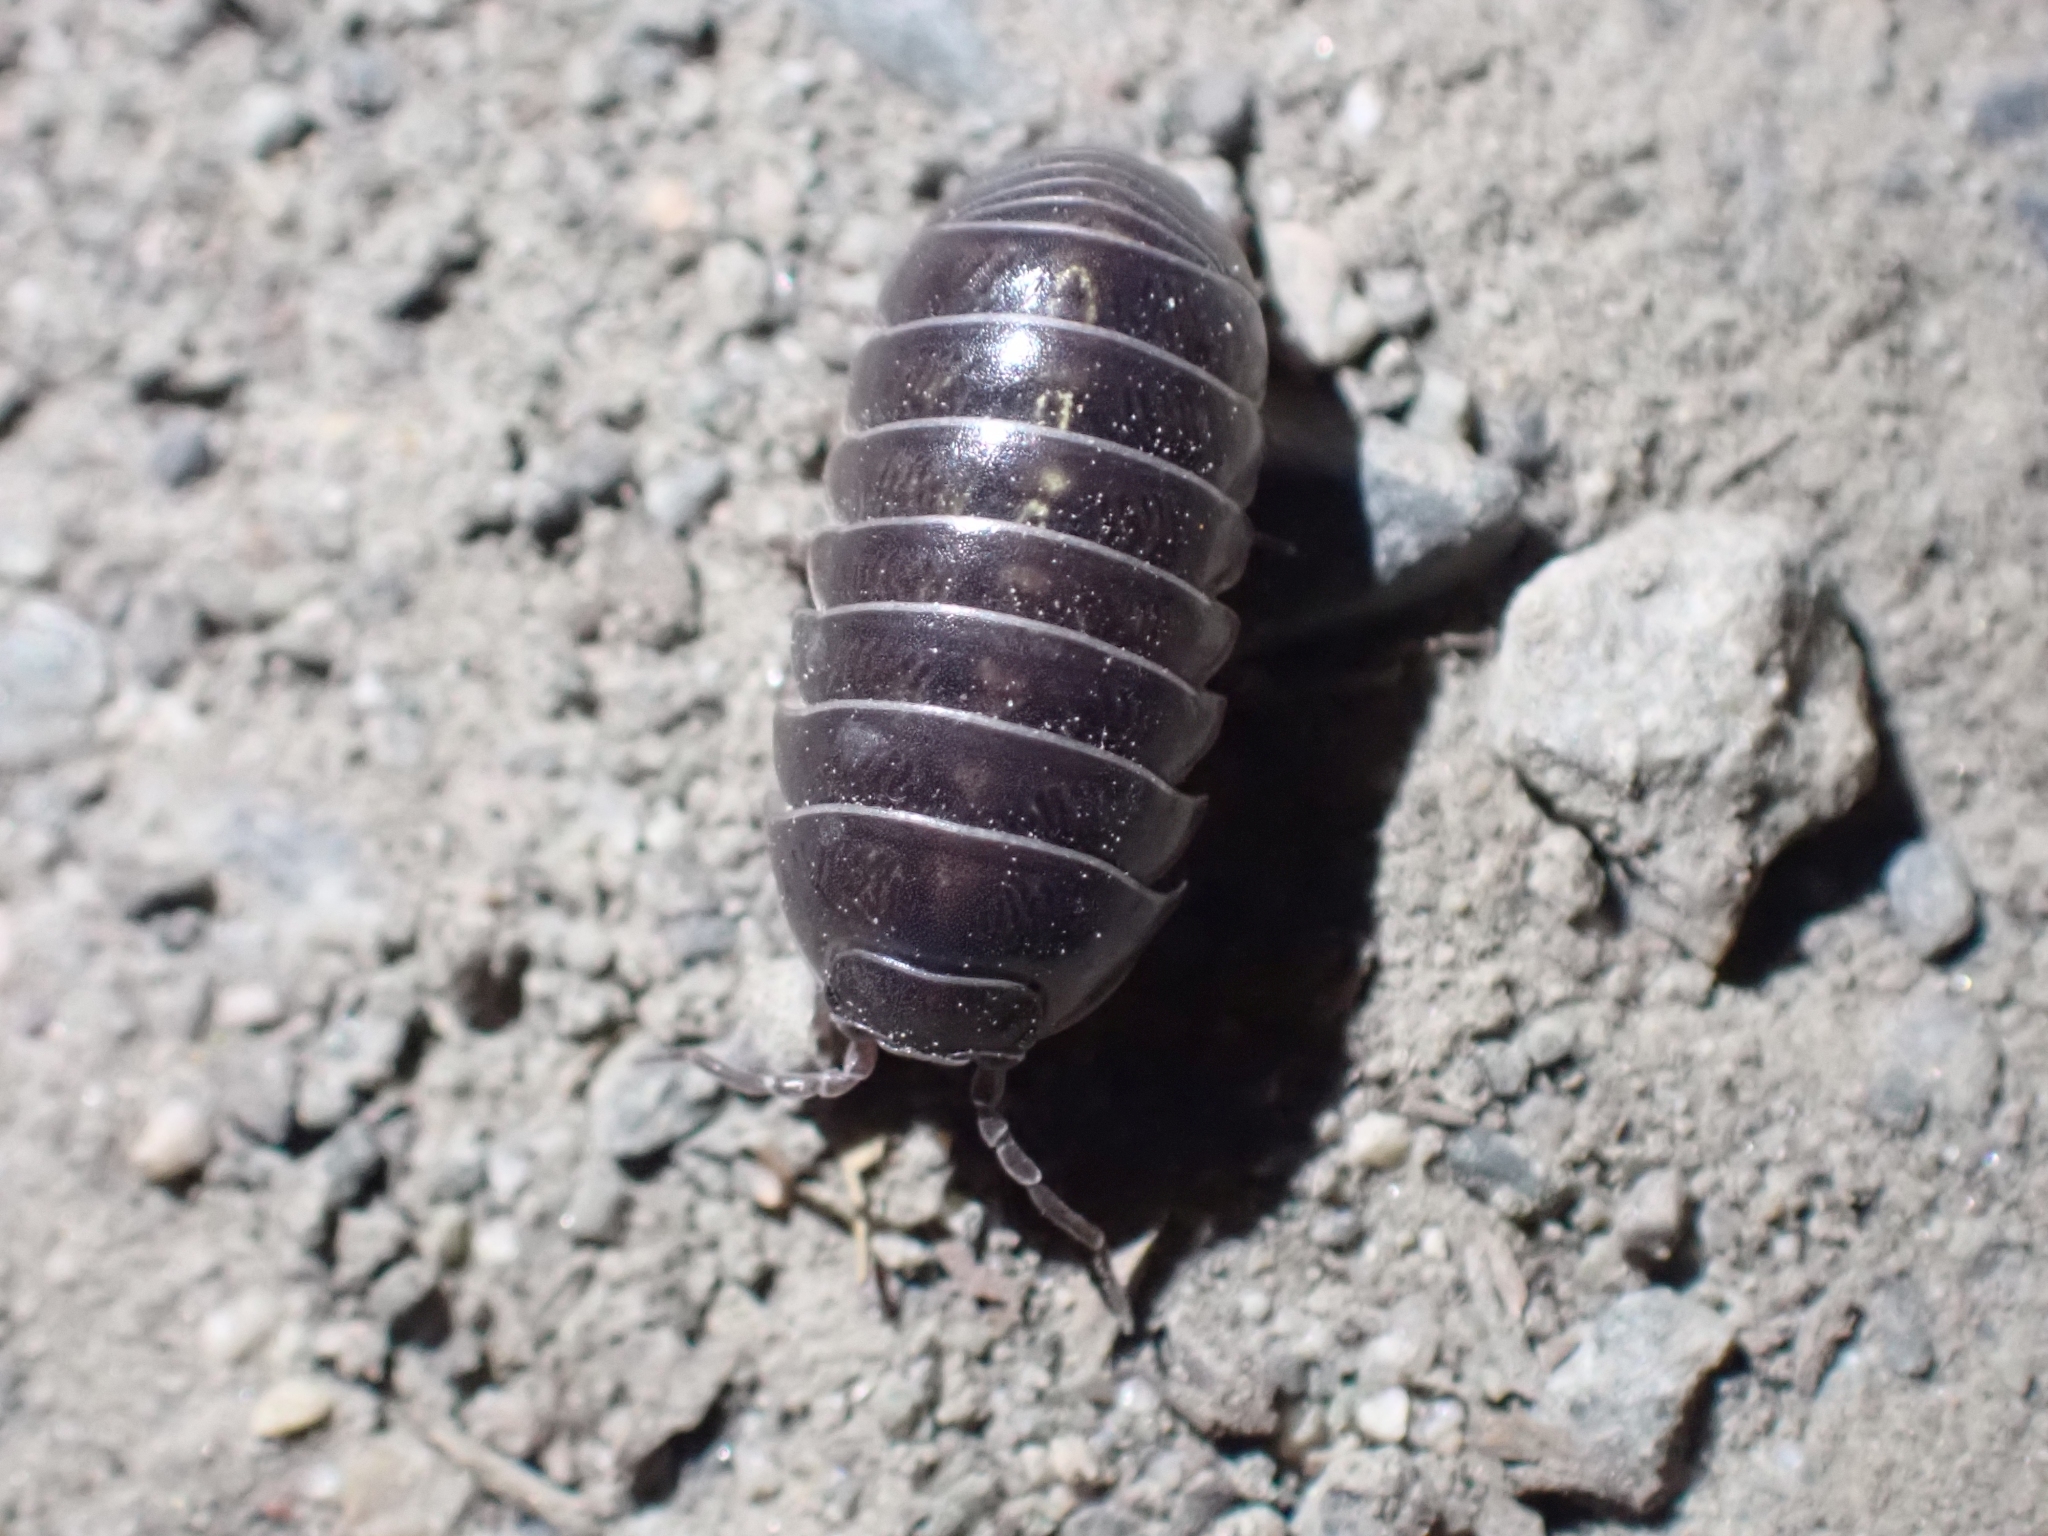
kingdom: Animalia
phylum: Arthropoda
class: Malacostraca
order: Isopoda
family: Armadillidiidae
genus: Armadillidium
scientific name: Armadillidium vulgare
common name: Common pill woodlouse
